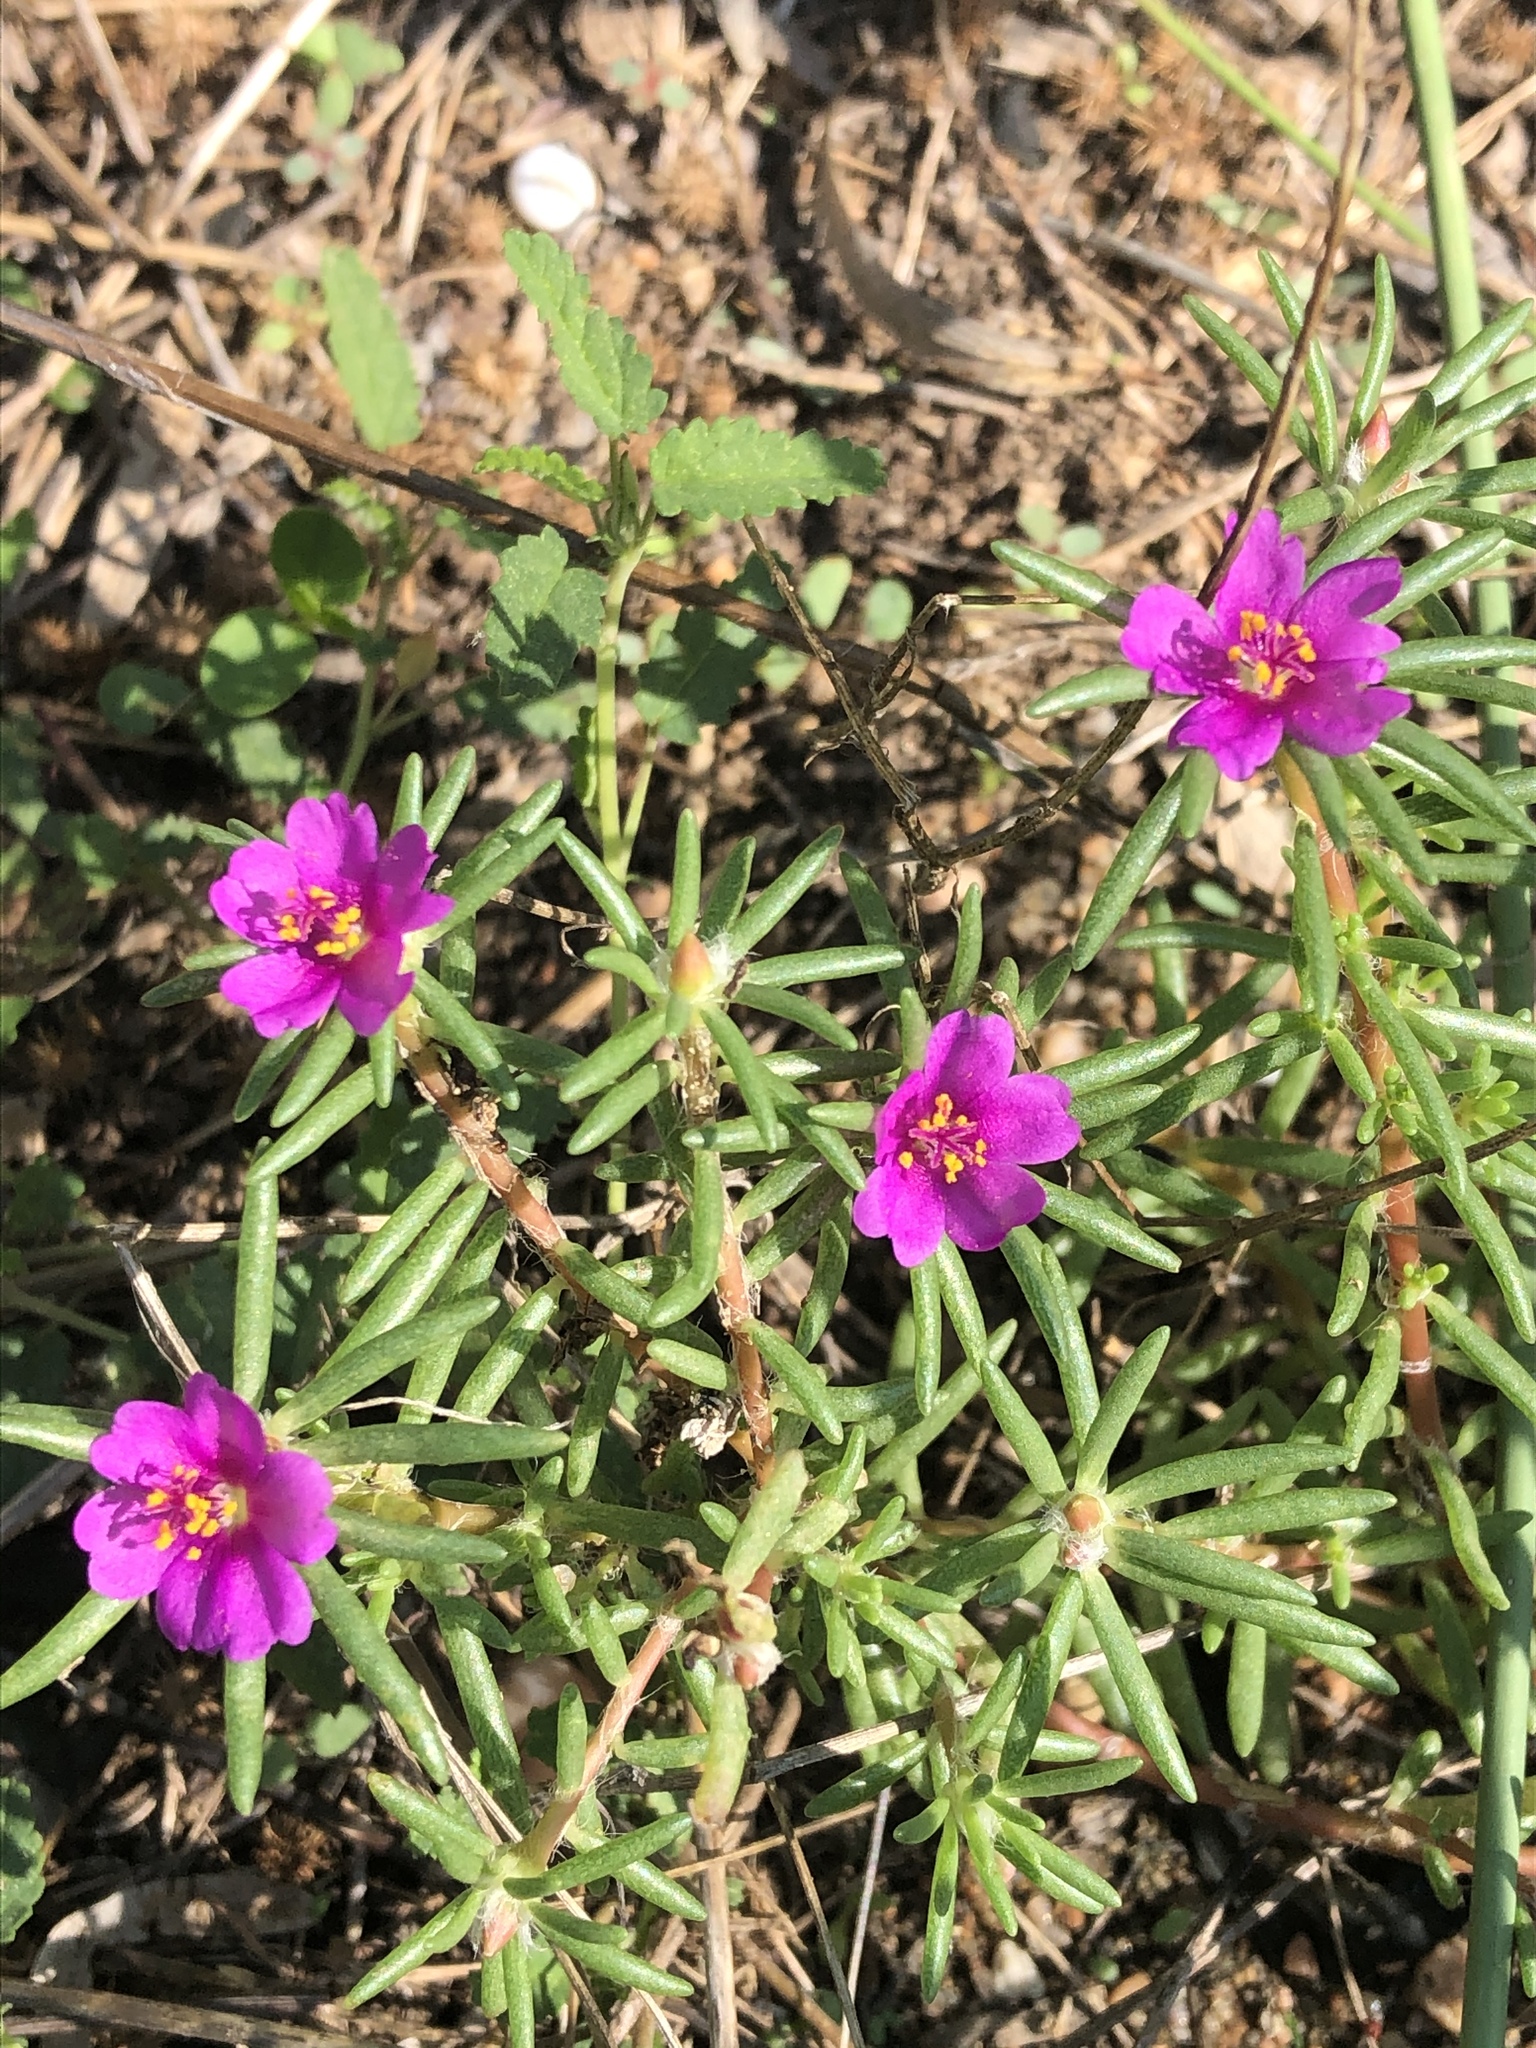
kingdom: Plantae
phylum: Tracheophyta
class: Magnoliopsida
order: Caryophyllales
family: Portulacaceae
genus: Portulaca
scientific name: Portulaca pilosa
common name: Kiss me quick
